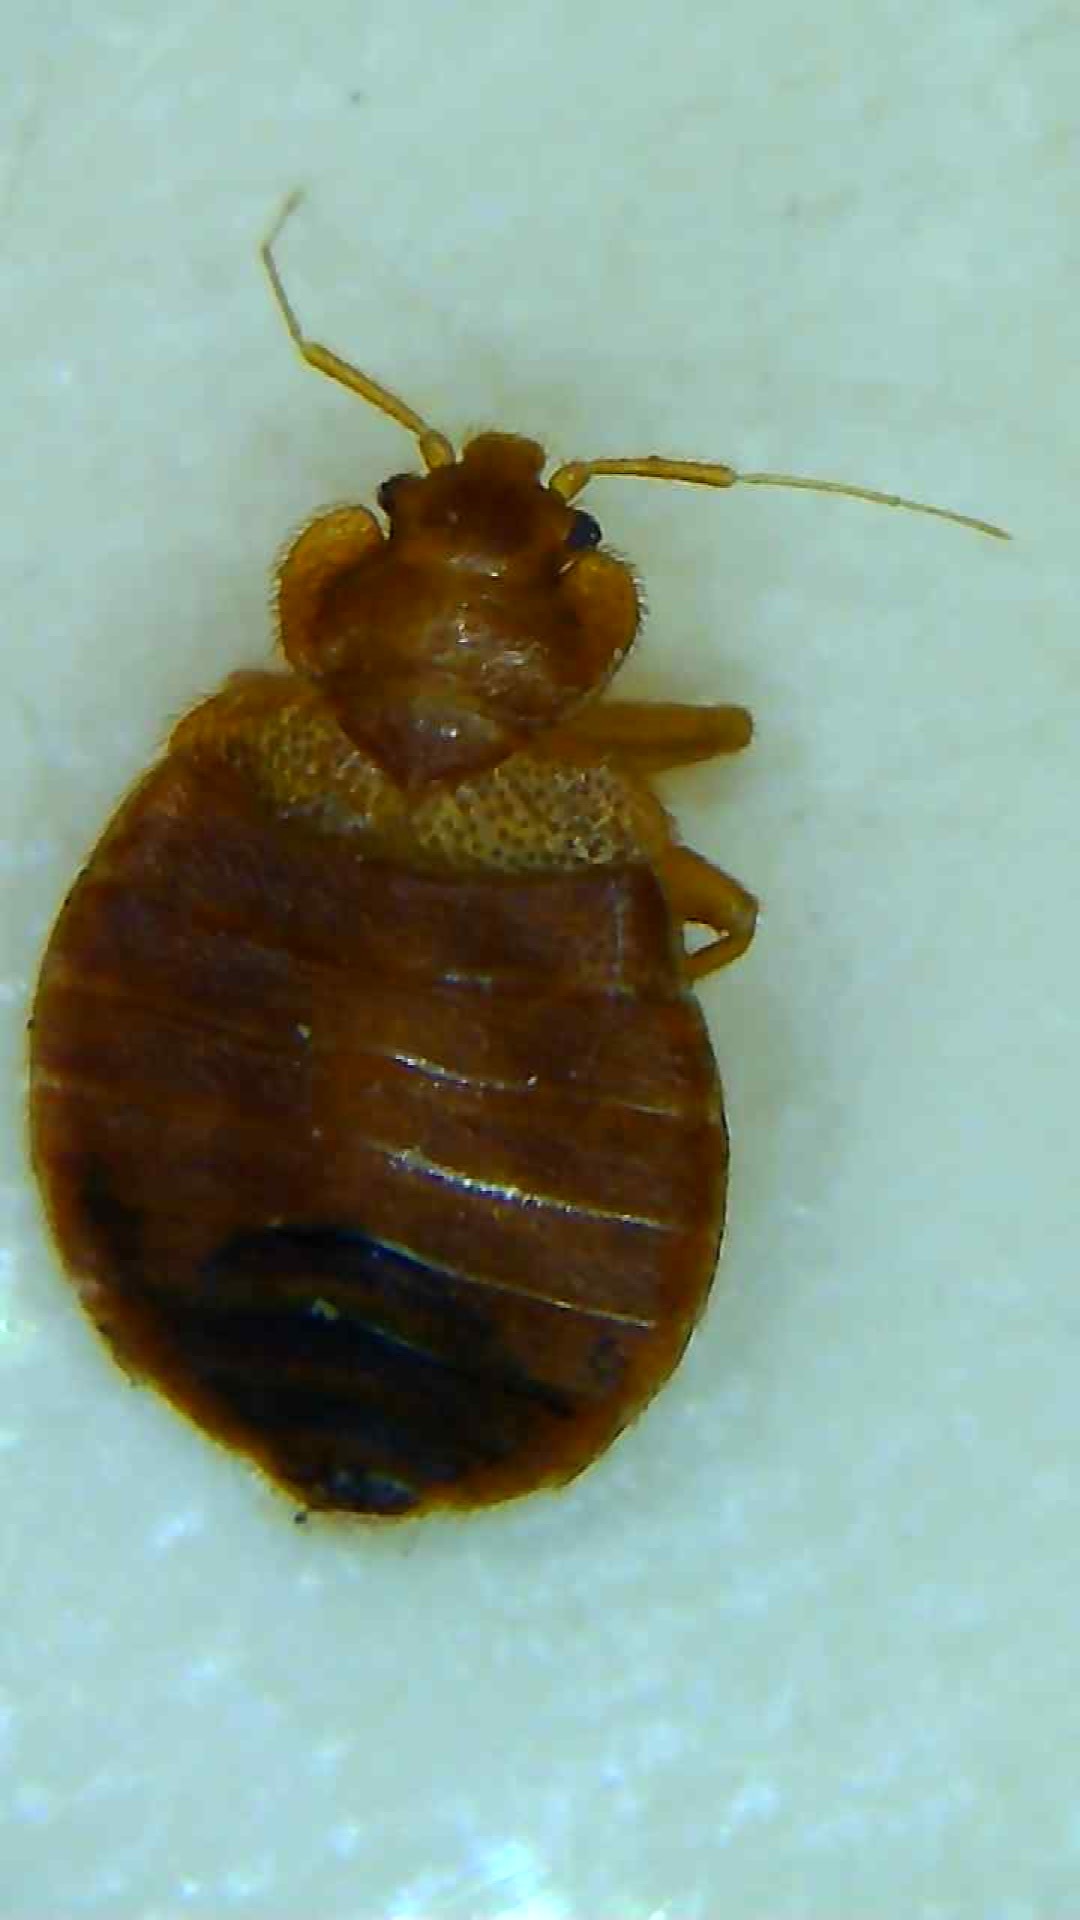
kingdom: Animalia
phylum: Arthropoda
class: Insecta
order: Hemiptera
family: Cimicidae
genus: Cimex
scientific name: Cimex lectularius
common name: Bed bug
